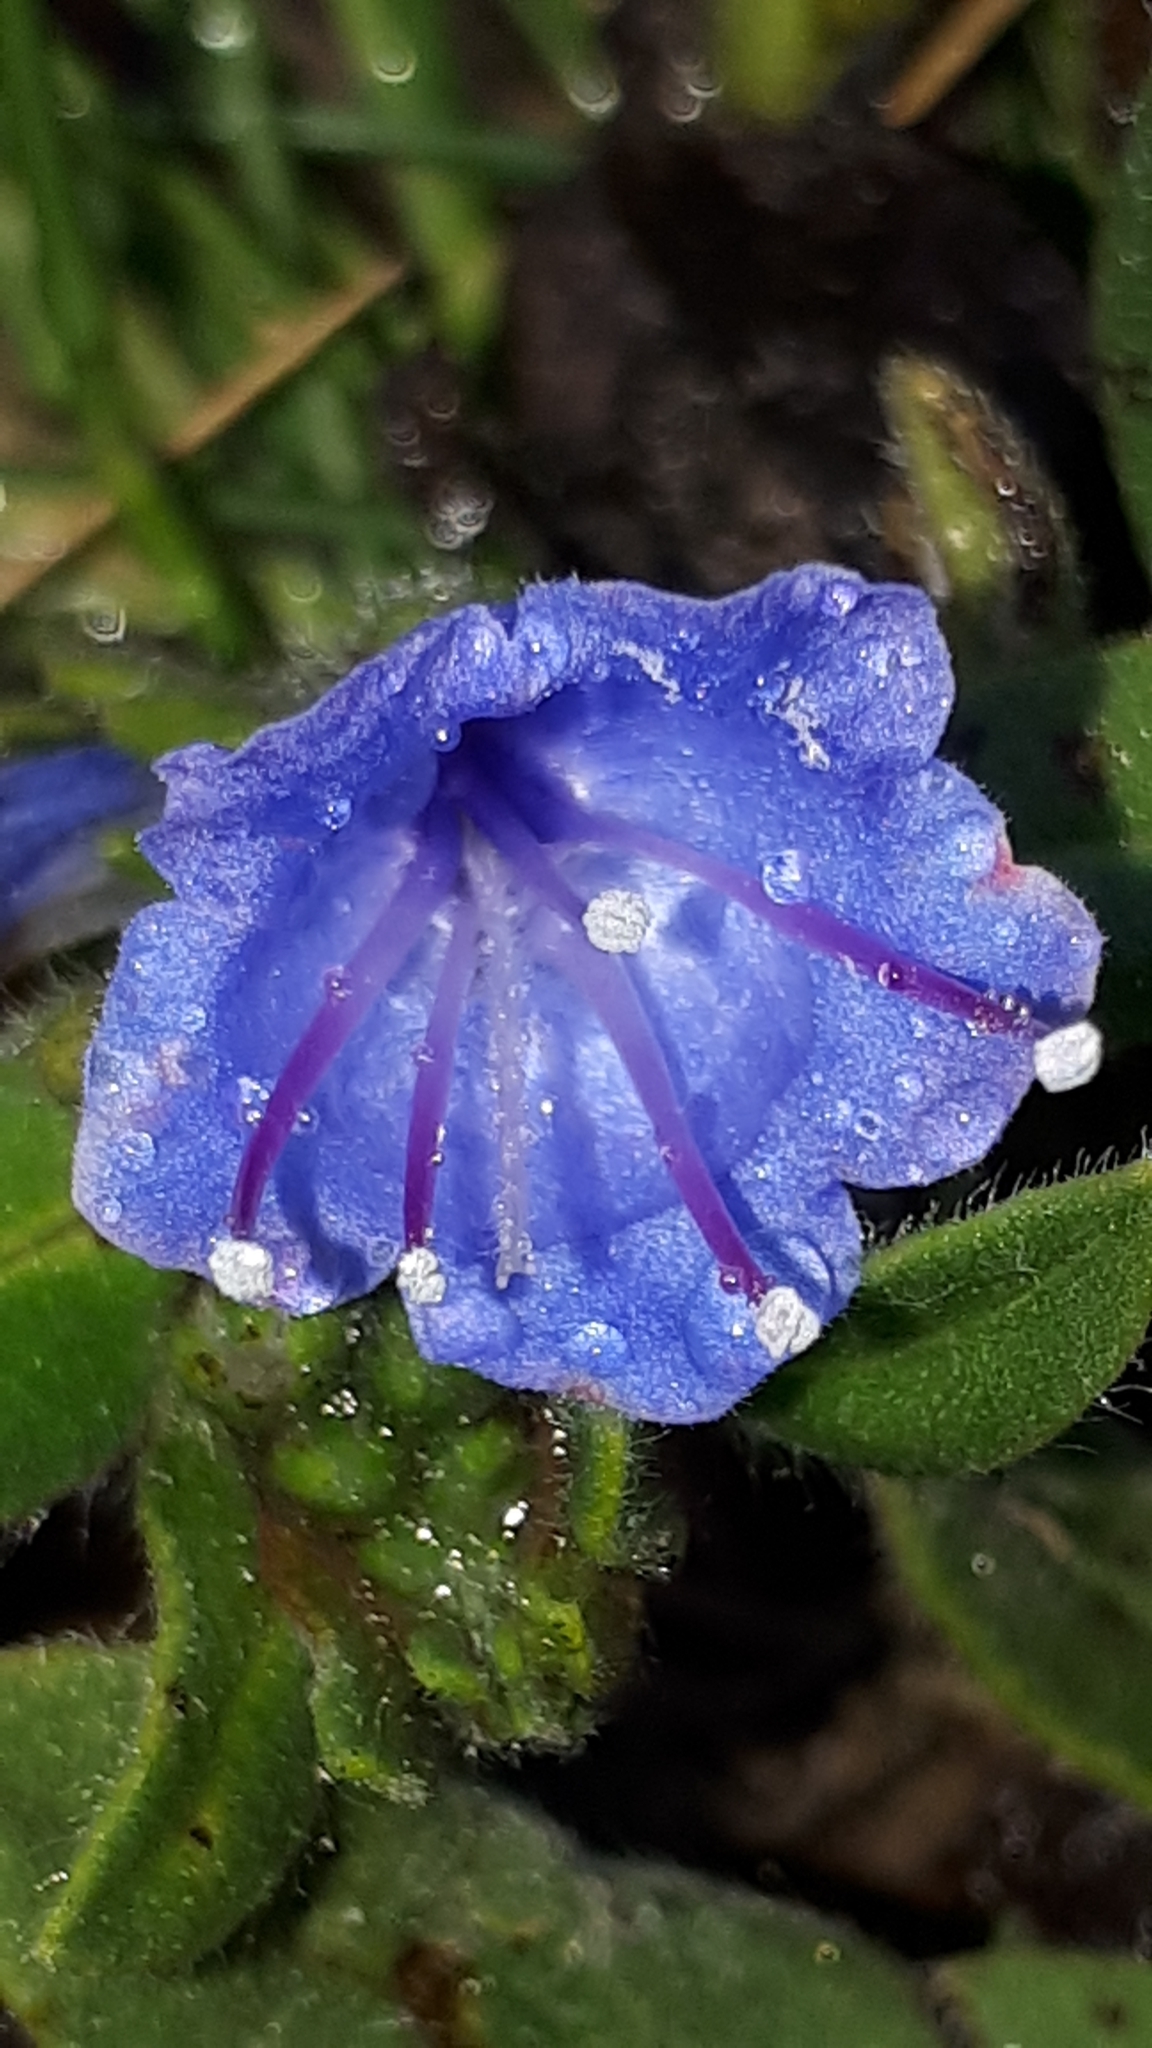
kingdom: Plantae
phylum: Tracheophyta
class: Magnoliopsida
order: Boraginales
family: Boraginaceae
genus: Echium
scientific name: Echium vulgare
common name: Common viper's bugloss
